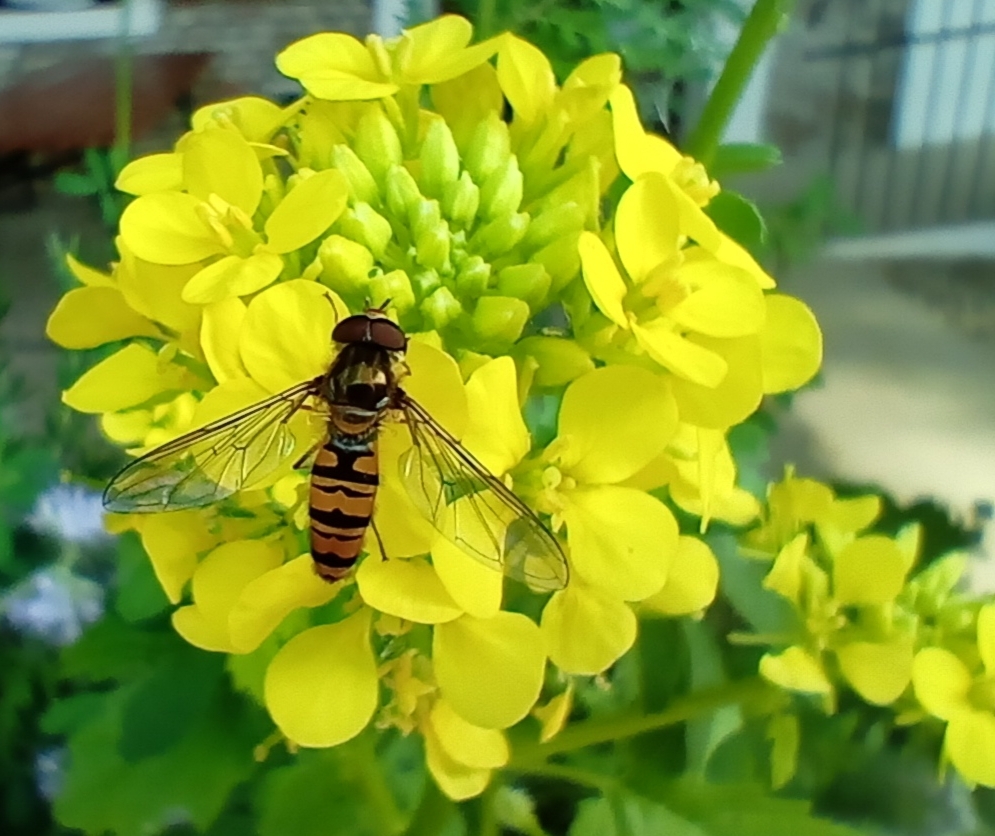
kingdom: Animalia
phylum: Arthropoda
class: Insecta
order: Diptera
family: Syrphidae
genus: Episyrphus
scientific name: Episyrphus balteatus
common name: Marmalade hoverfly
